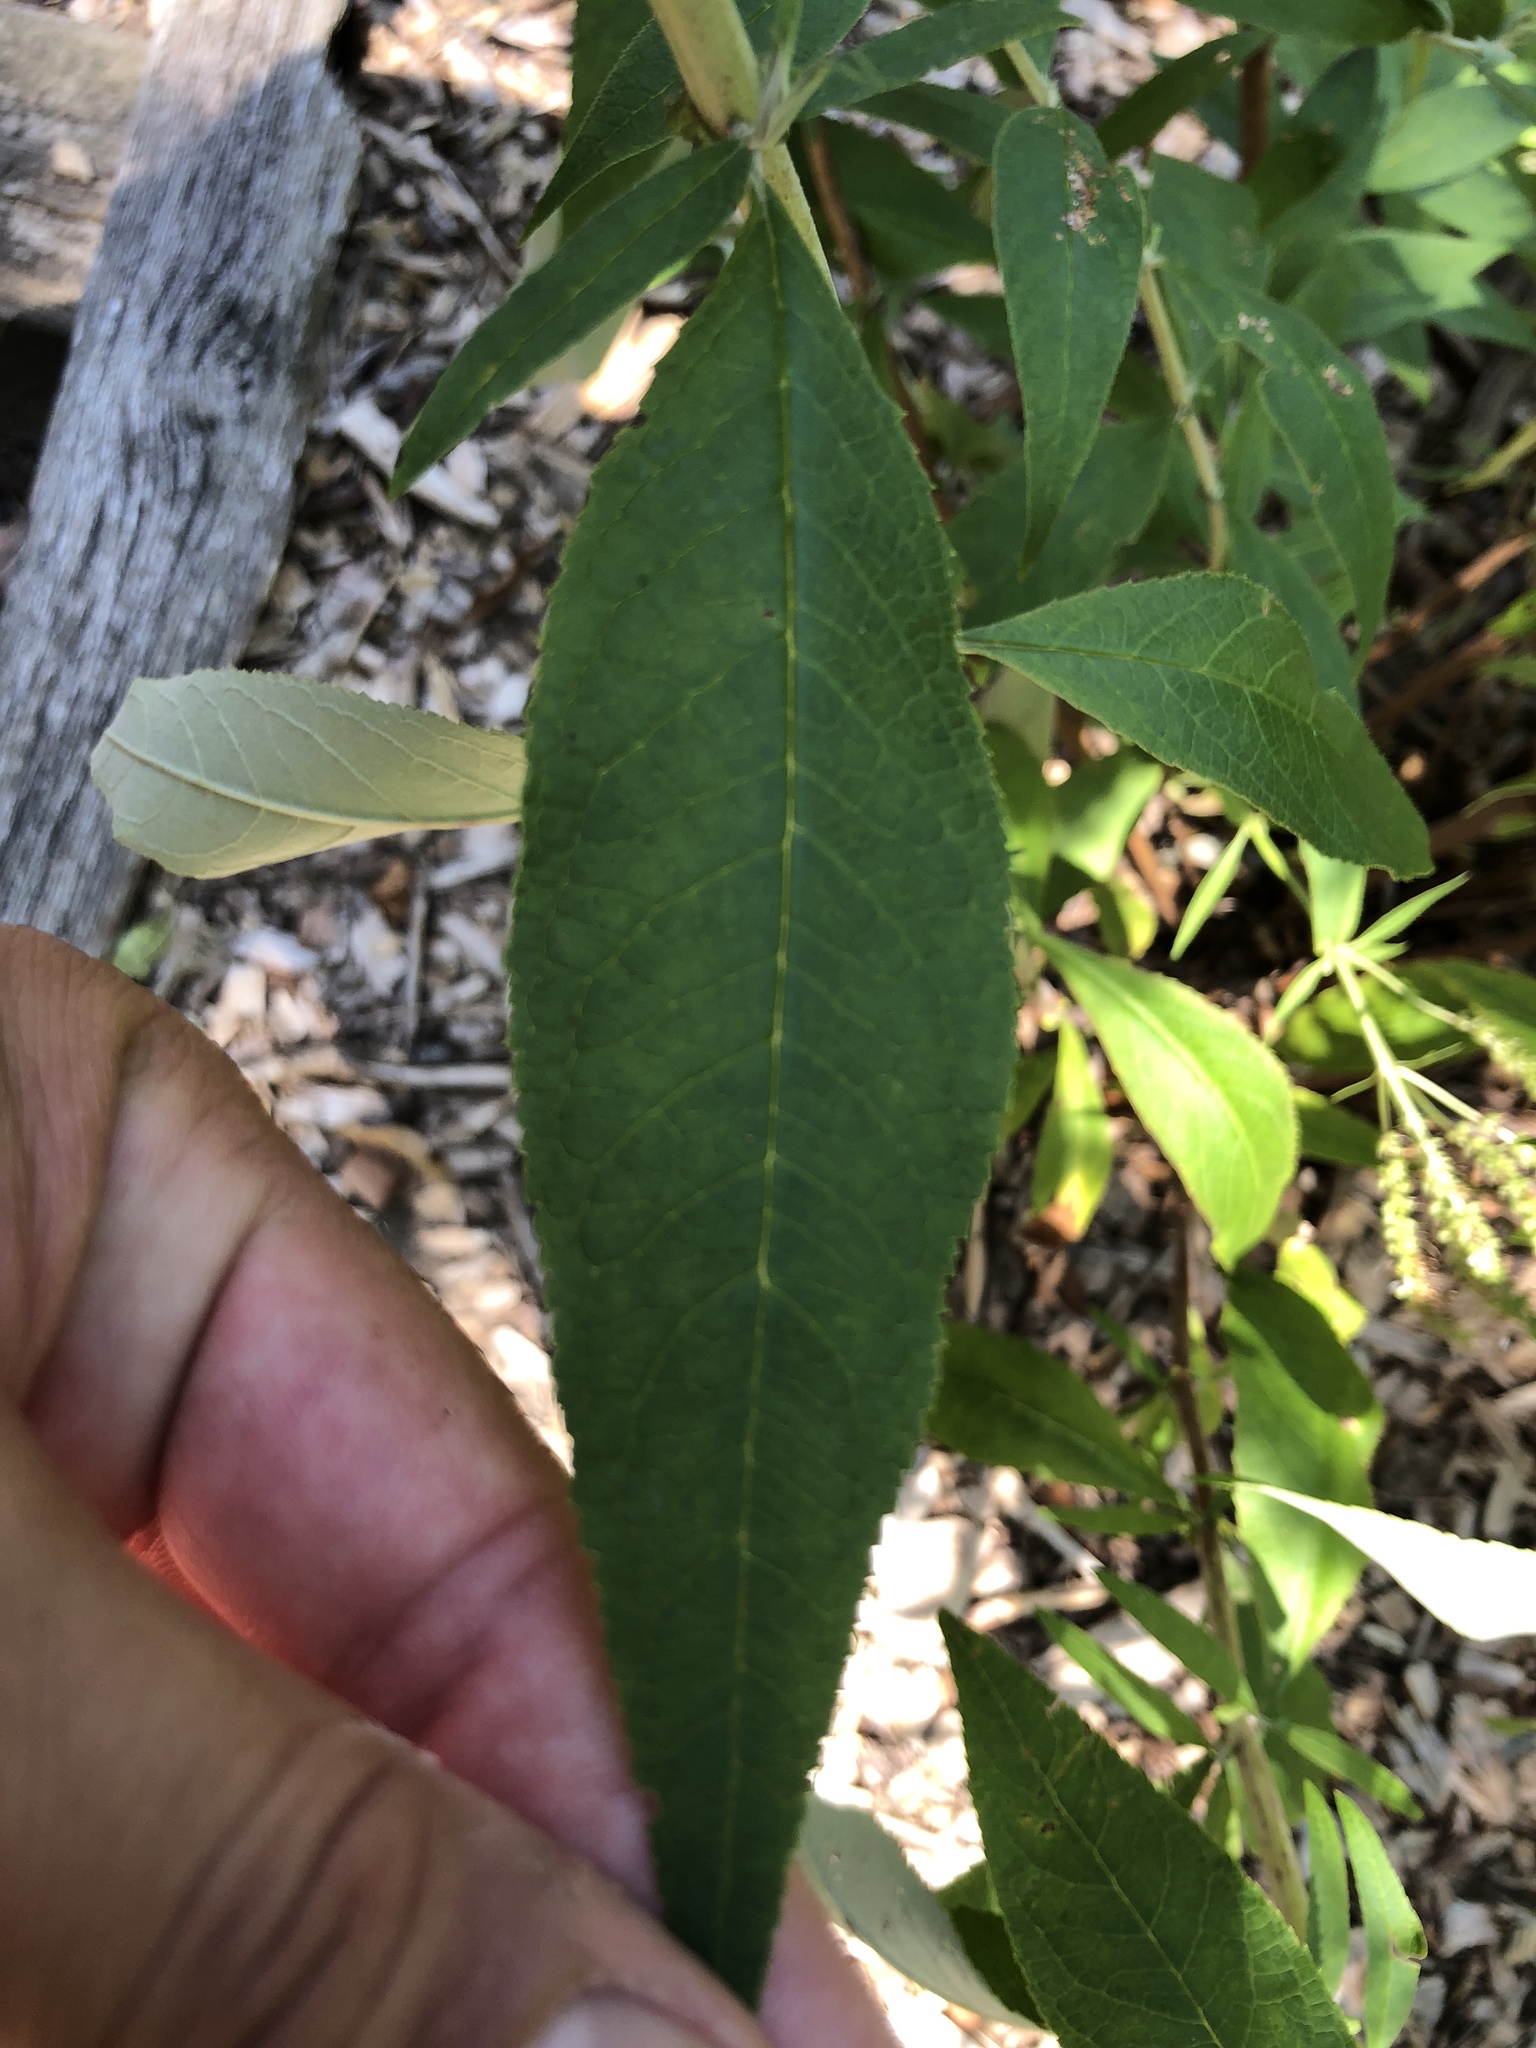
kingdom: Plantae
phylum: Tracheophyta
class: Magnoliopsida
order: Lamiales
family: Scrophulariaceae
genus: Buddleja
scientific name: Buddleja davidii
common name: Butterfly-bush
